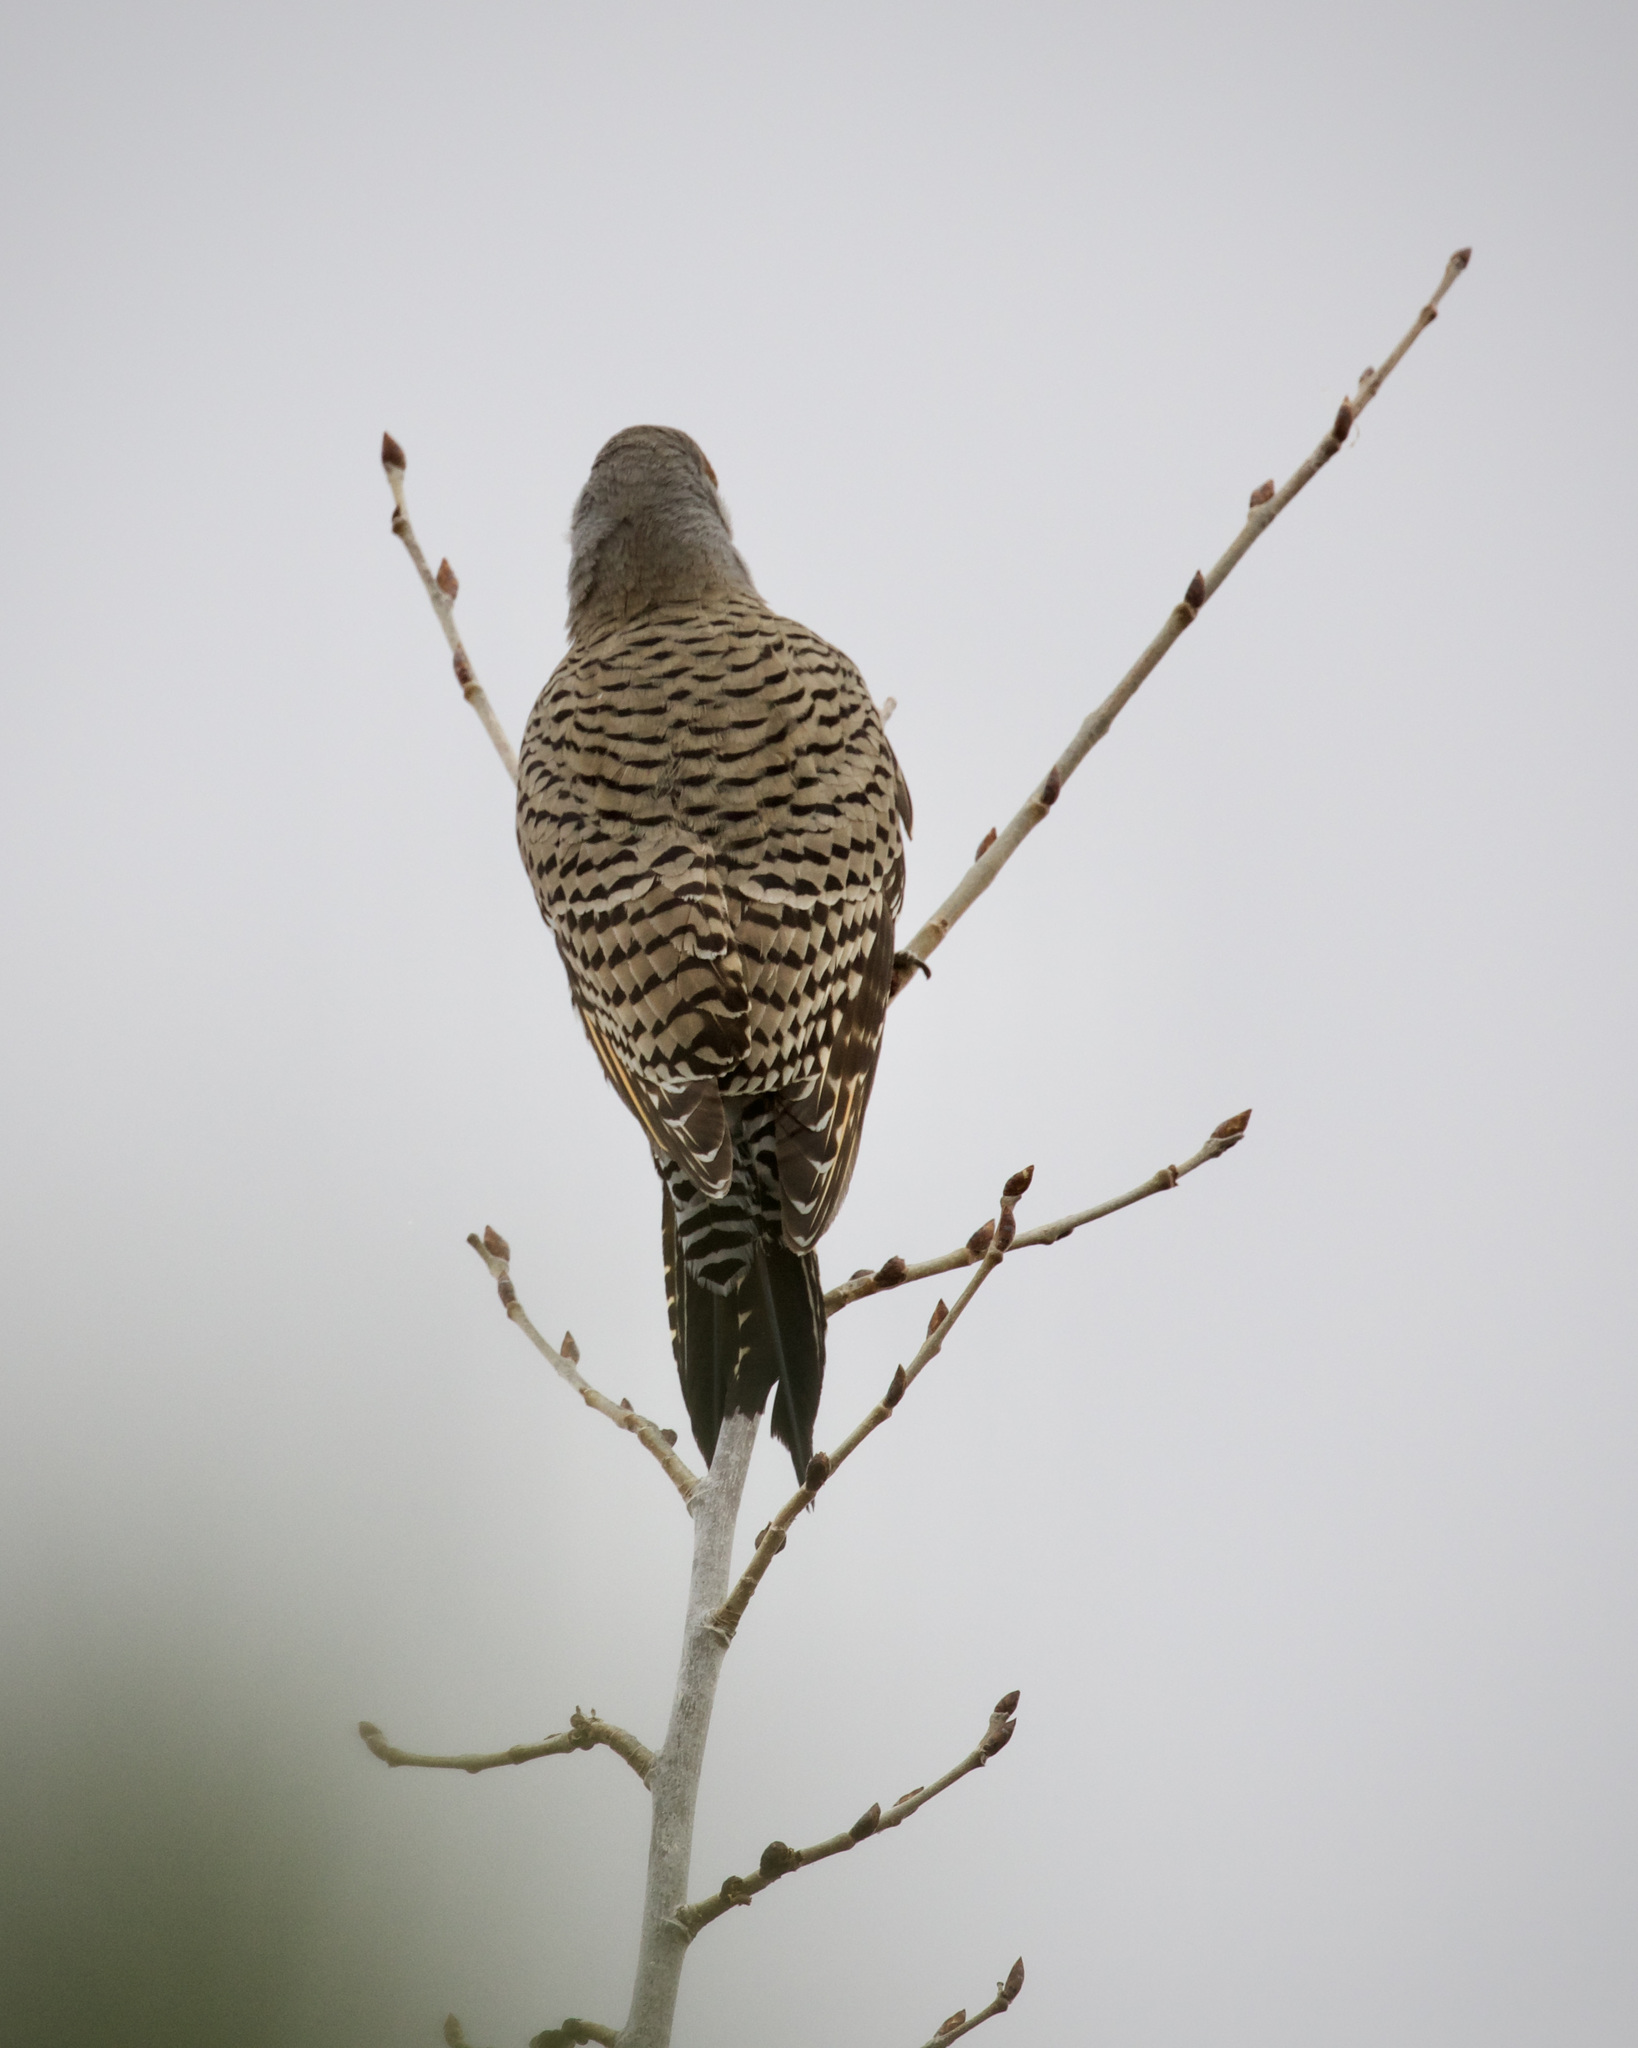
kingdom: Animalia
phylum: Chordata
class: Aves
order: Piciformes
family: Picidae
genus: Colaptes
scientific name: Colaptes auratus
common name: Northern flicker
